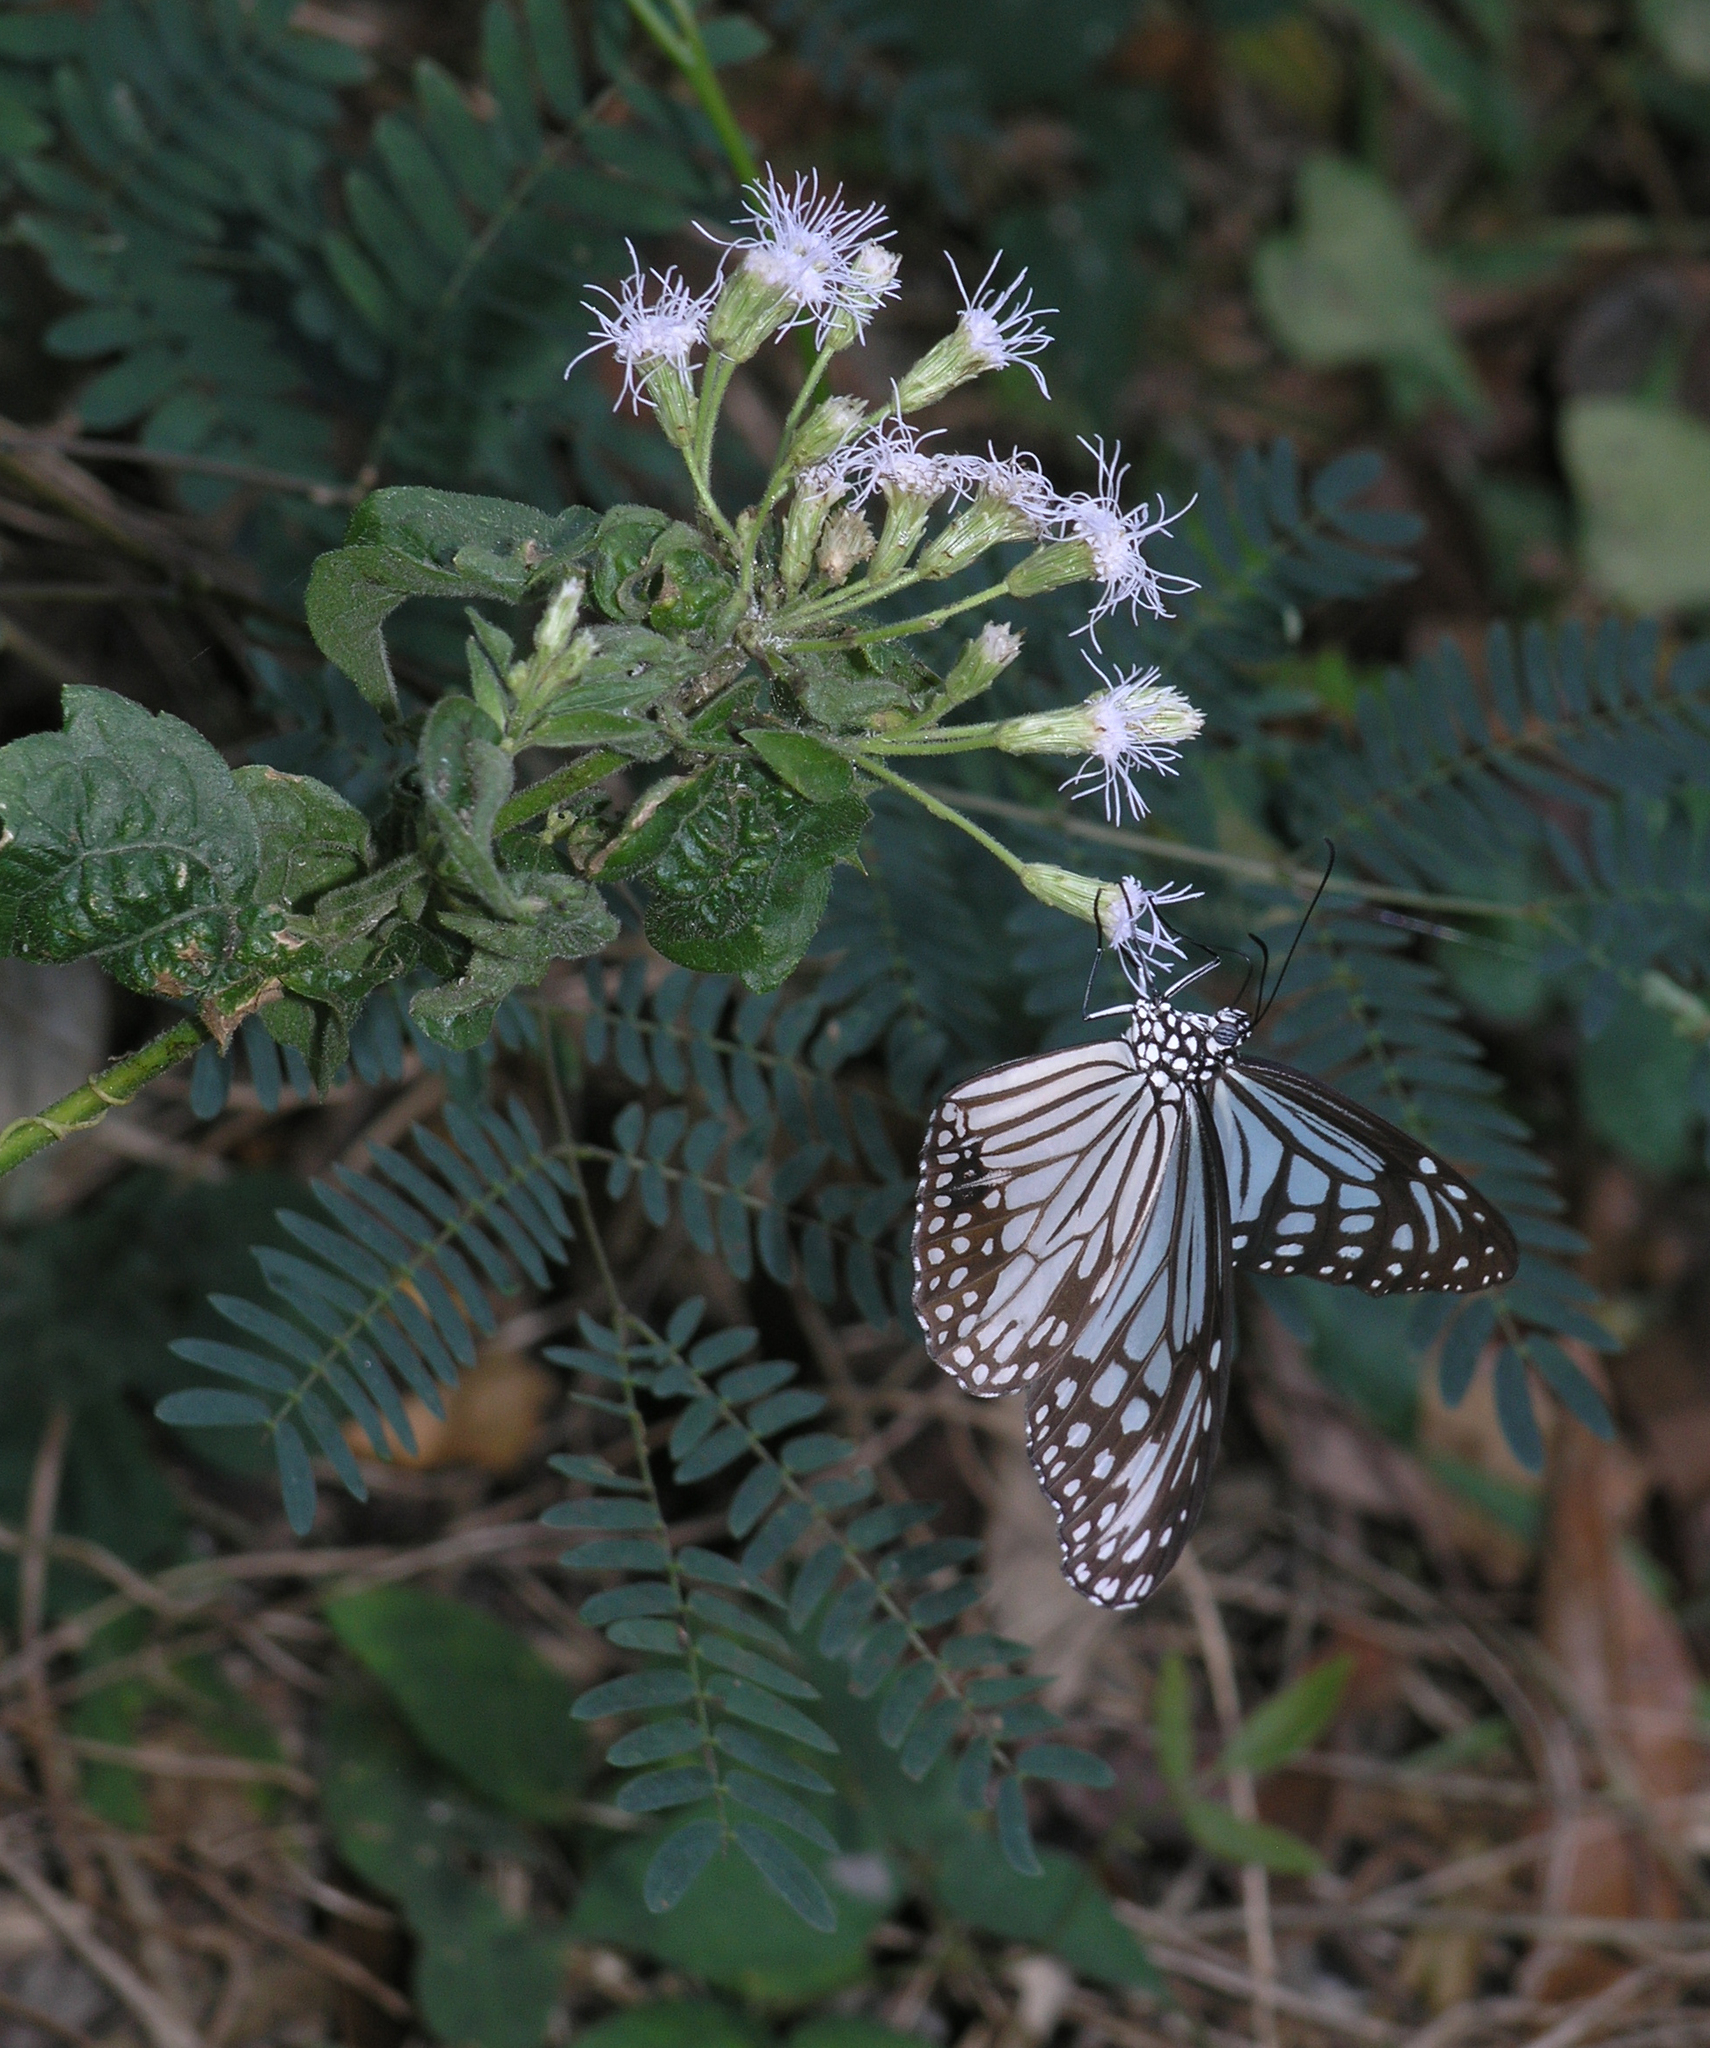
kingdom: Plantae
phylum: Tracheophyta
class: Magnoliopsida
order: Asterales
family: Asteraceae
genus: Chromolaena
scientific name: Chromolaena odorata
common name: Siamweed
